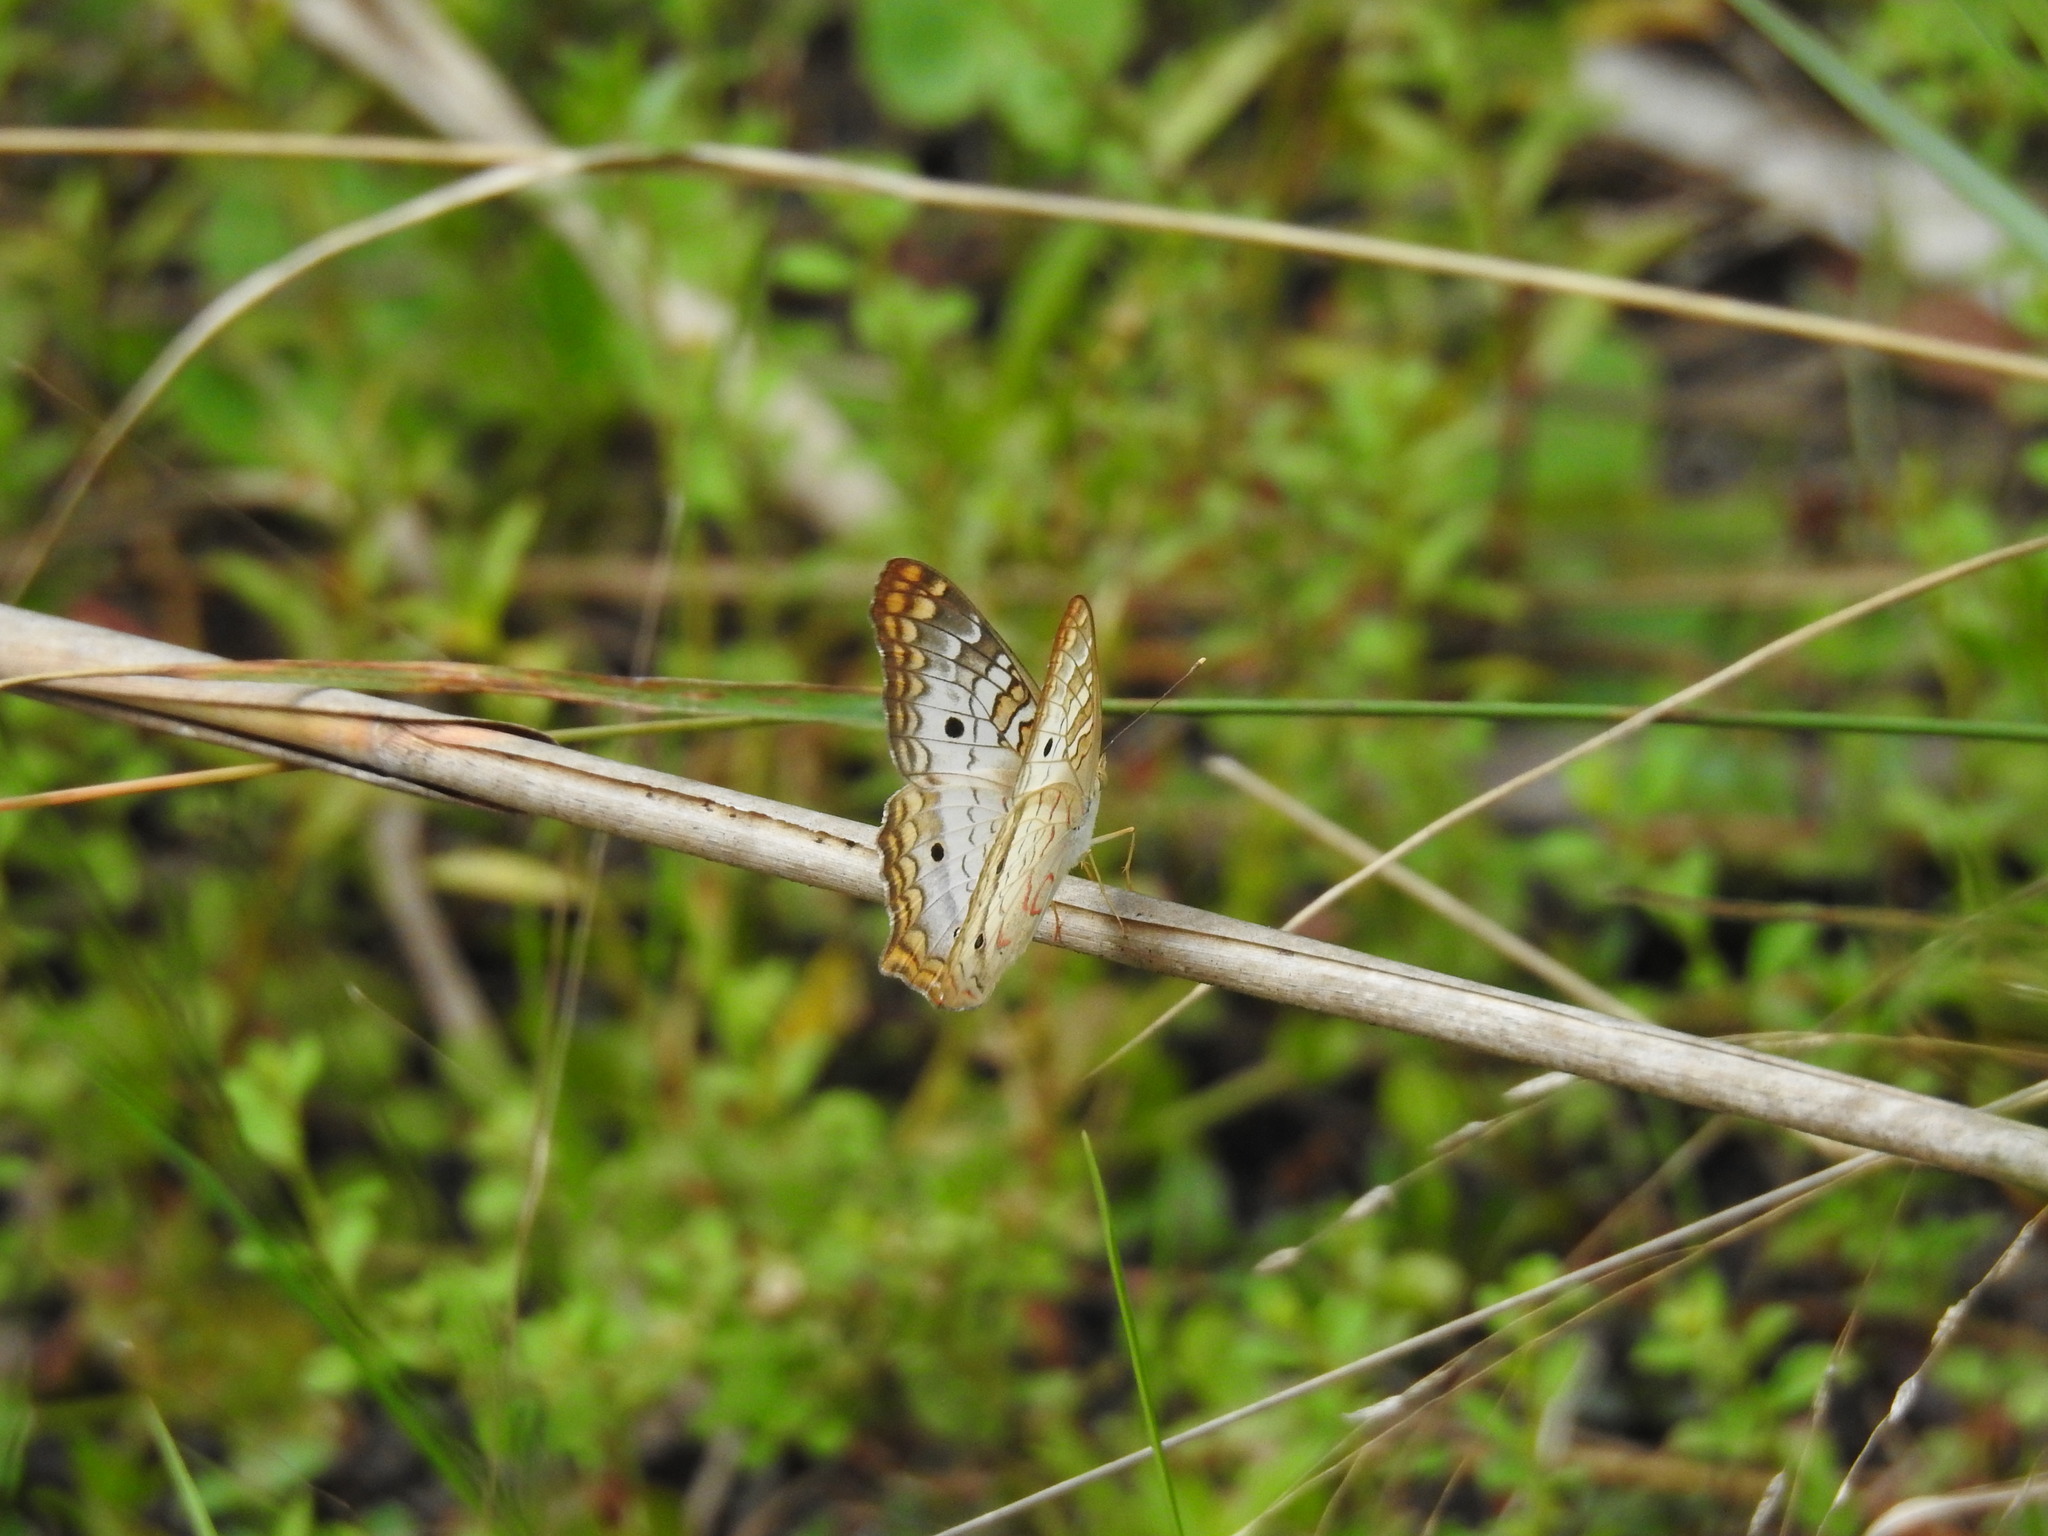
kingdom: Animalia
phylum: Arthropoda
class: Insecta
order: Lepidoptera
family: Nymphalidae
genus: Anartia
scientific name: Anartia jatrophae
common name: White peacock
